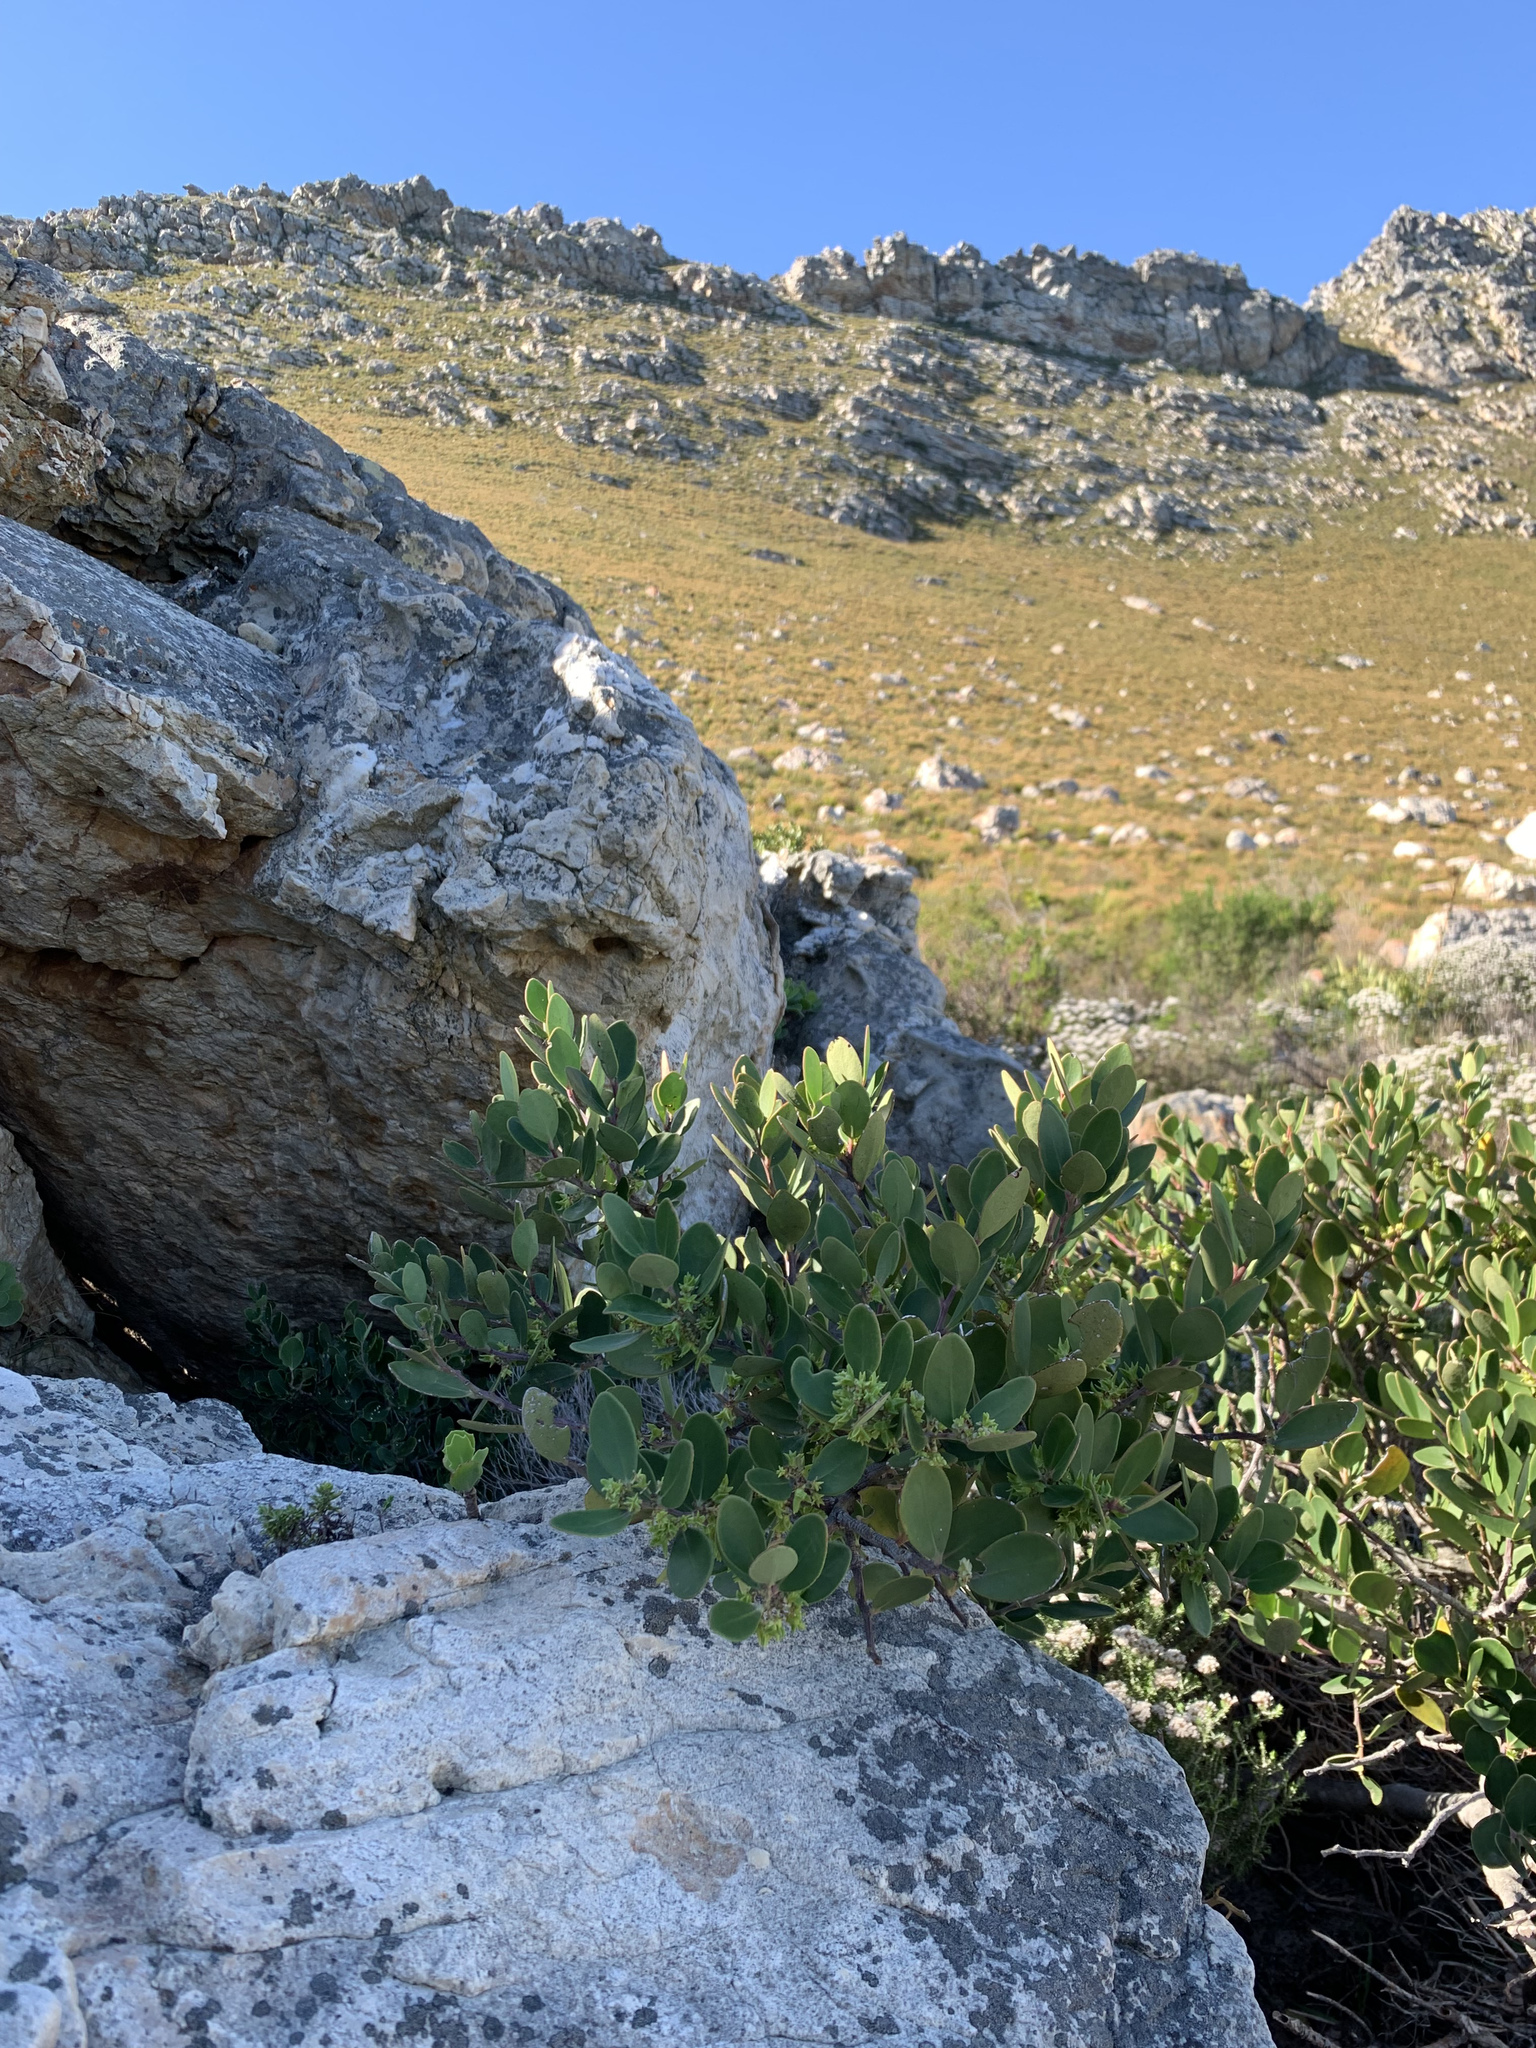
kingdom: Plantae
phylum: Tracheophyta
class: Magnoliopsida
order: Celastrales
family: Celastraceae
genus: Pterocelastrus
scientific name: Pterocelastrus tricuspidatus
